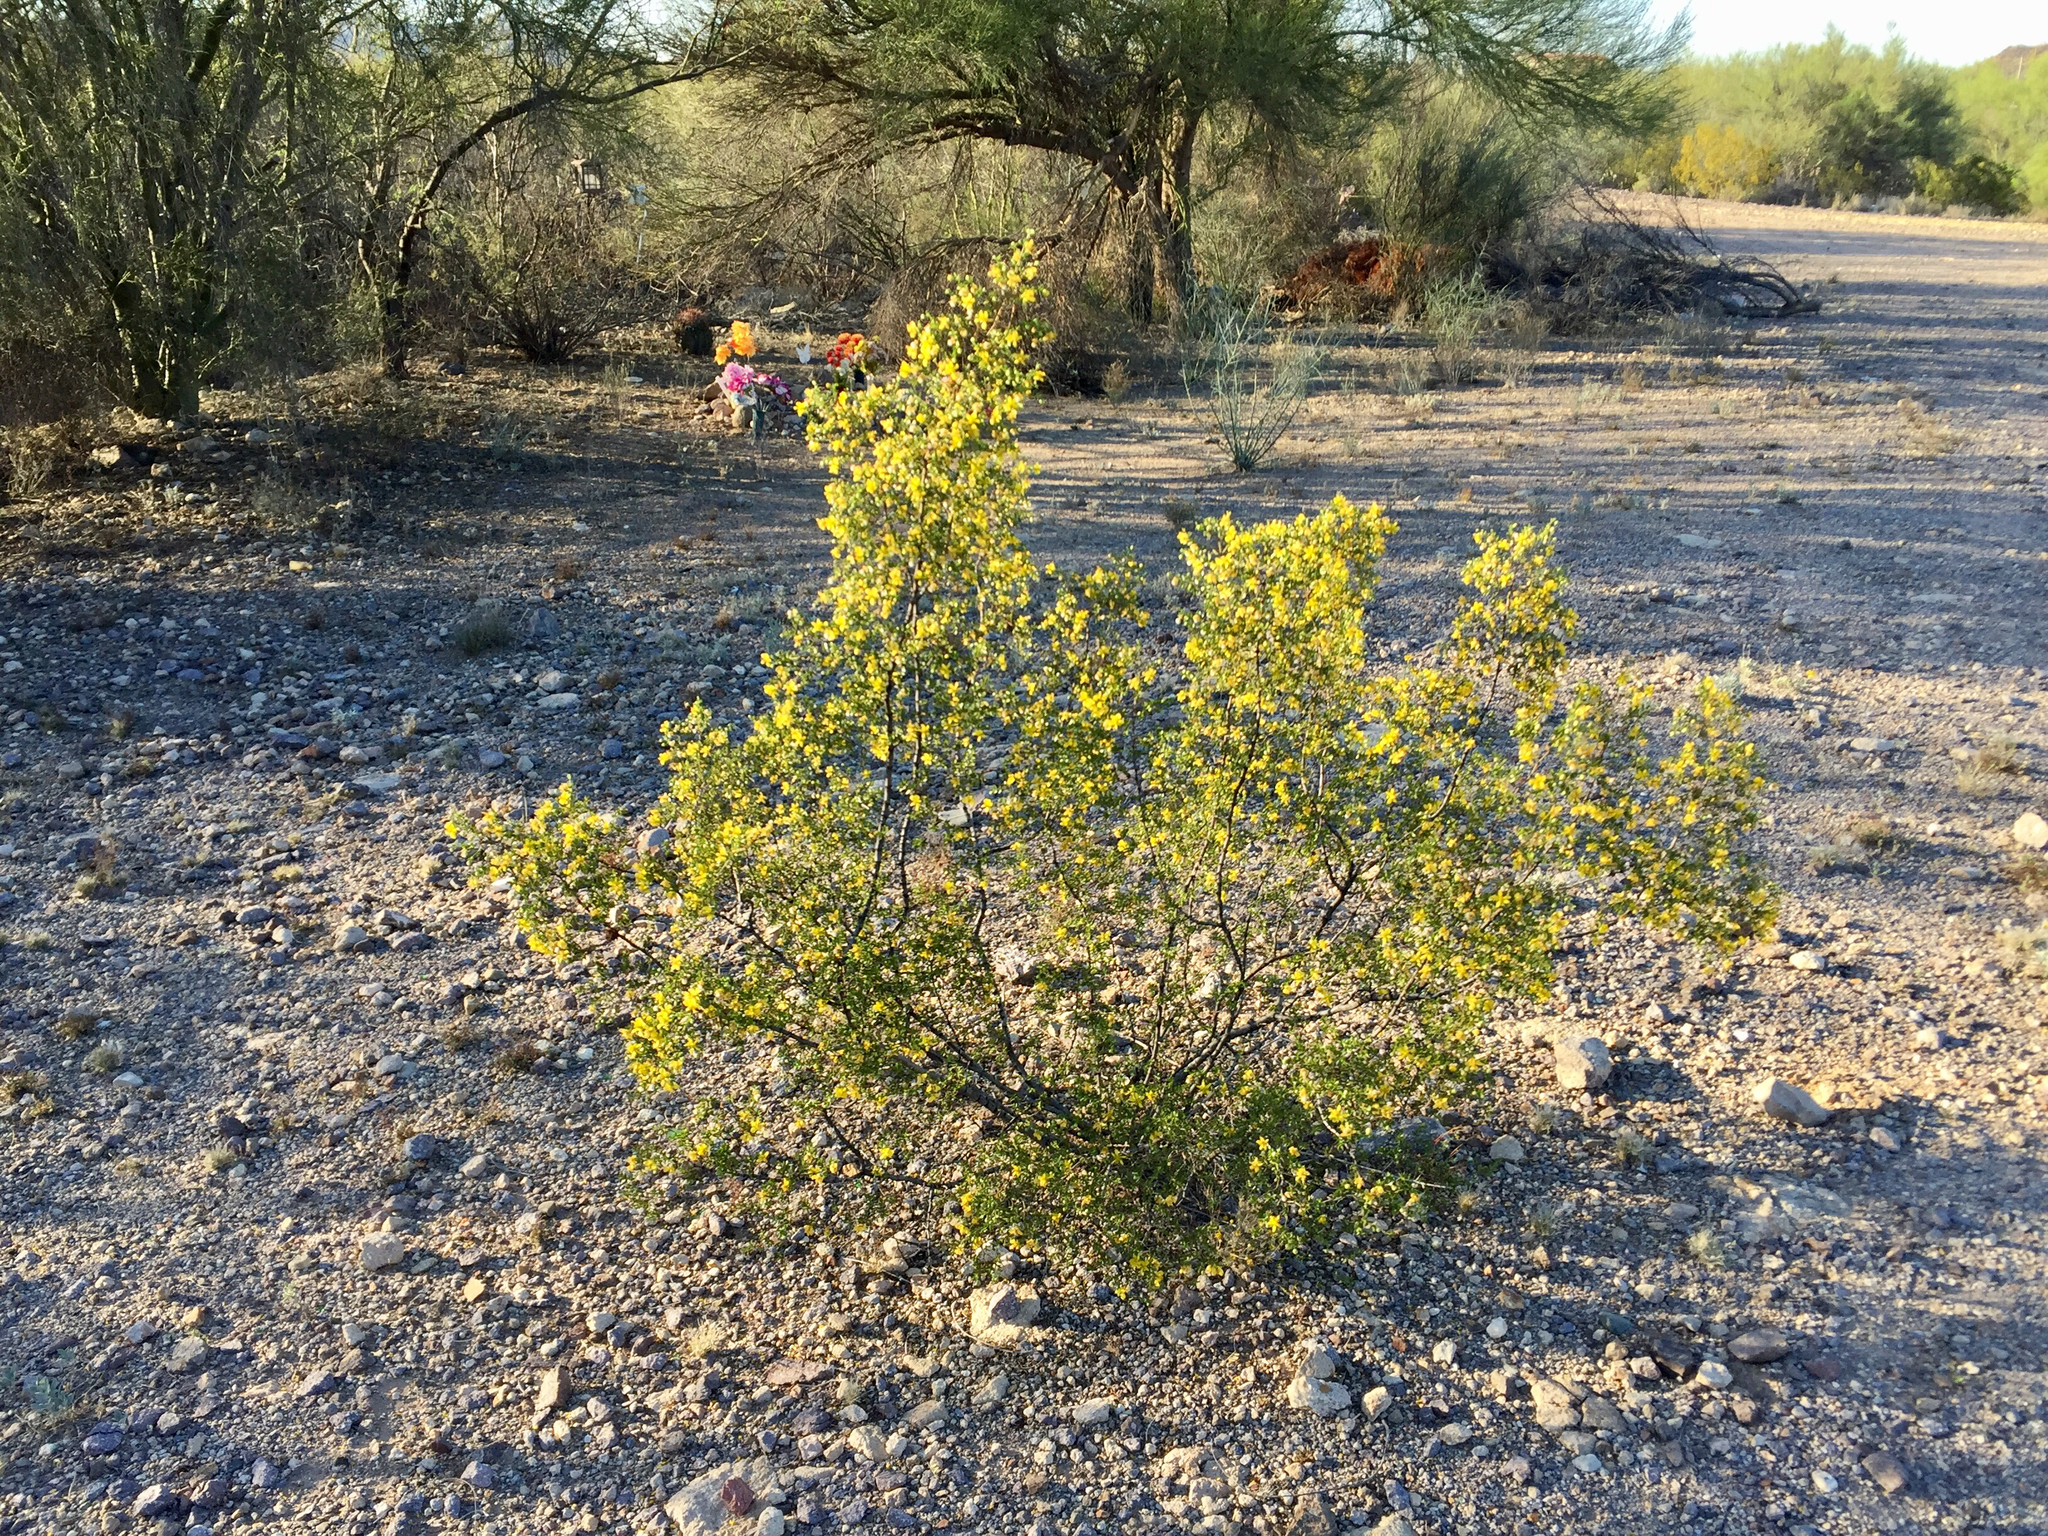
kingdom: Plantae
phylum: Tracheophyta
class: Magnoliopsida
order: Zygophyllales
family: Zygophyllaceae
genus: Larrea
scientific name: Larrea tridentata
